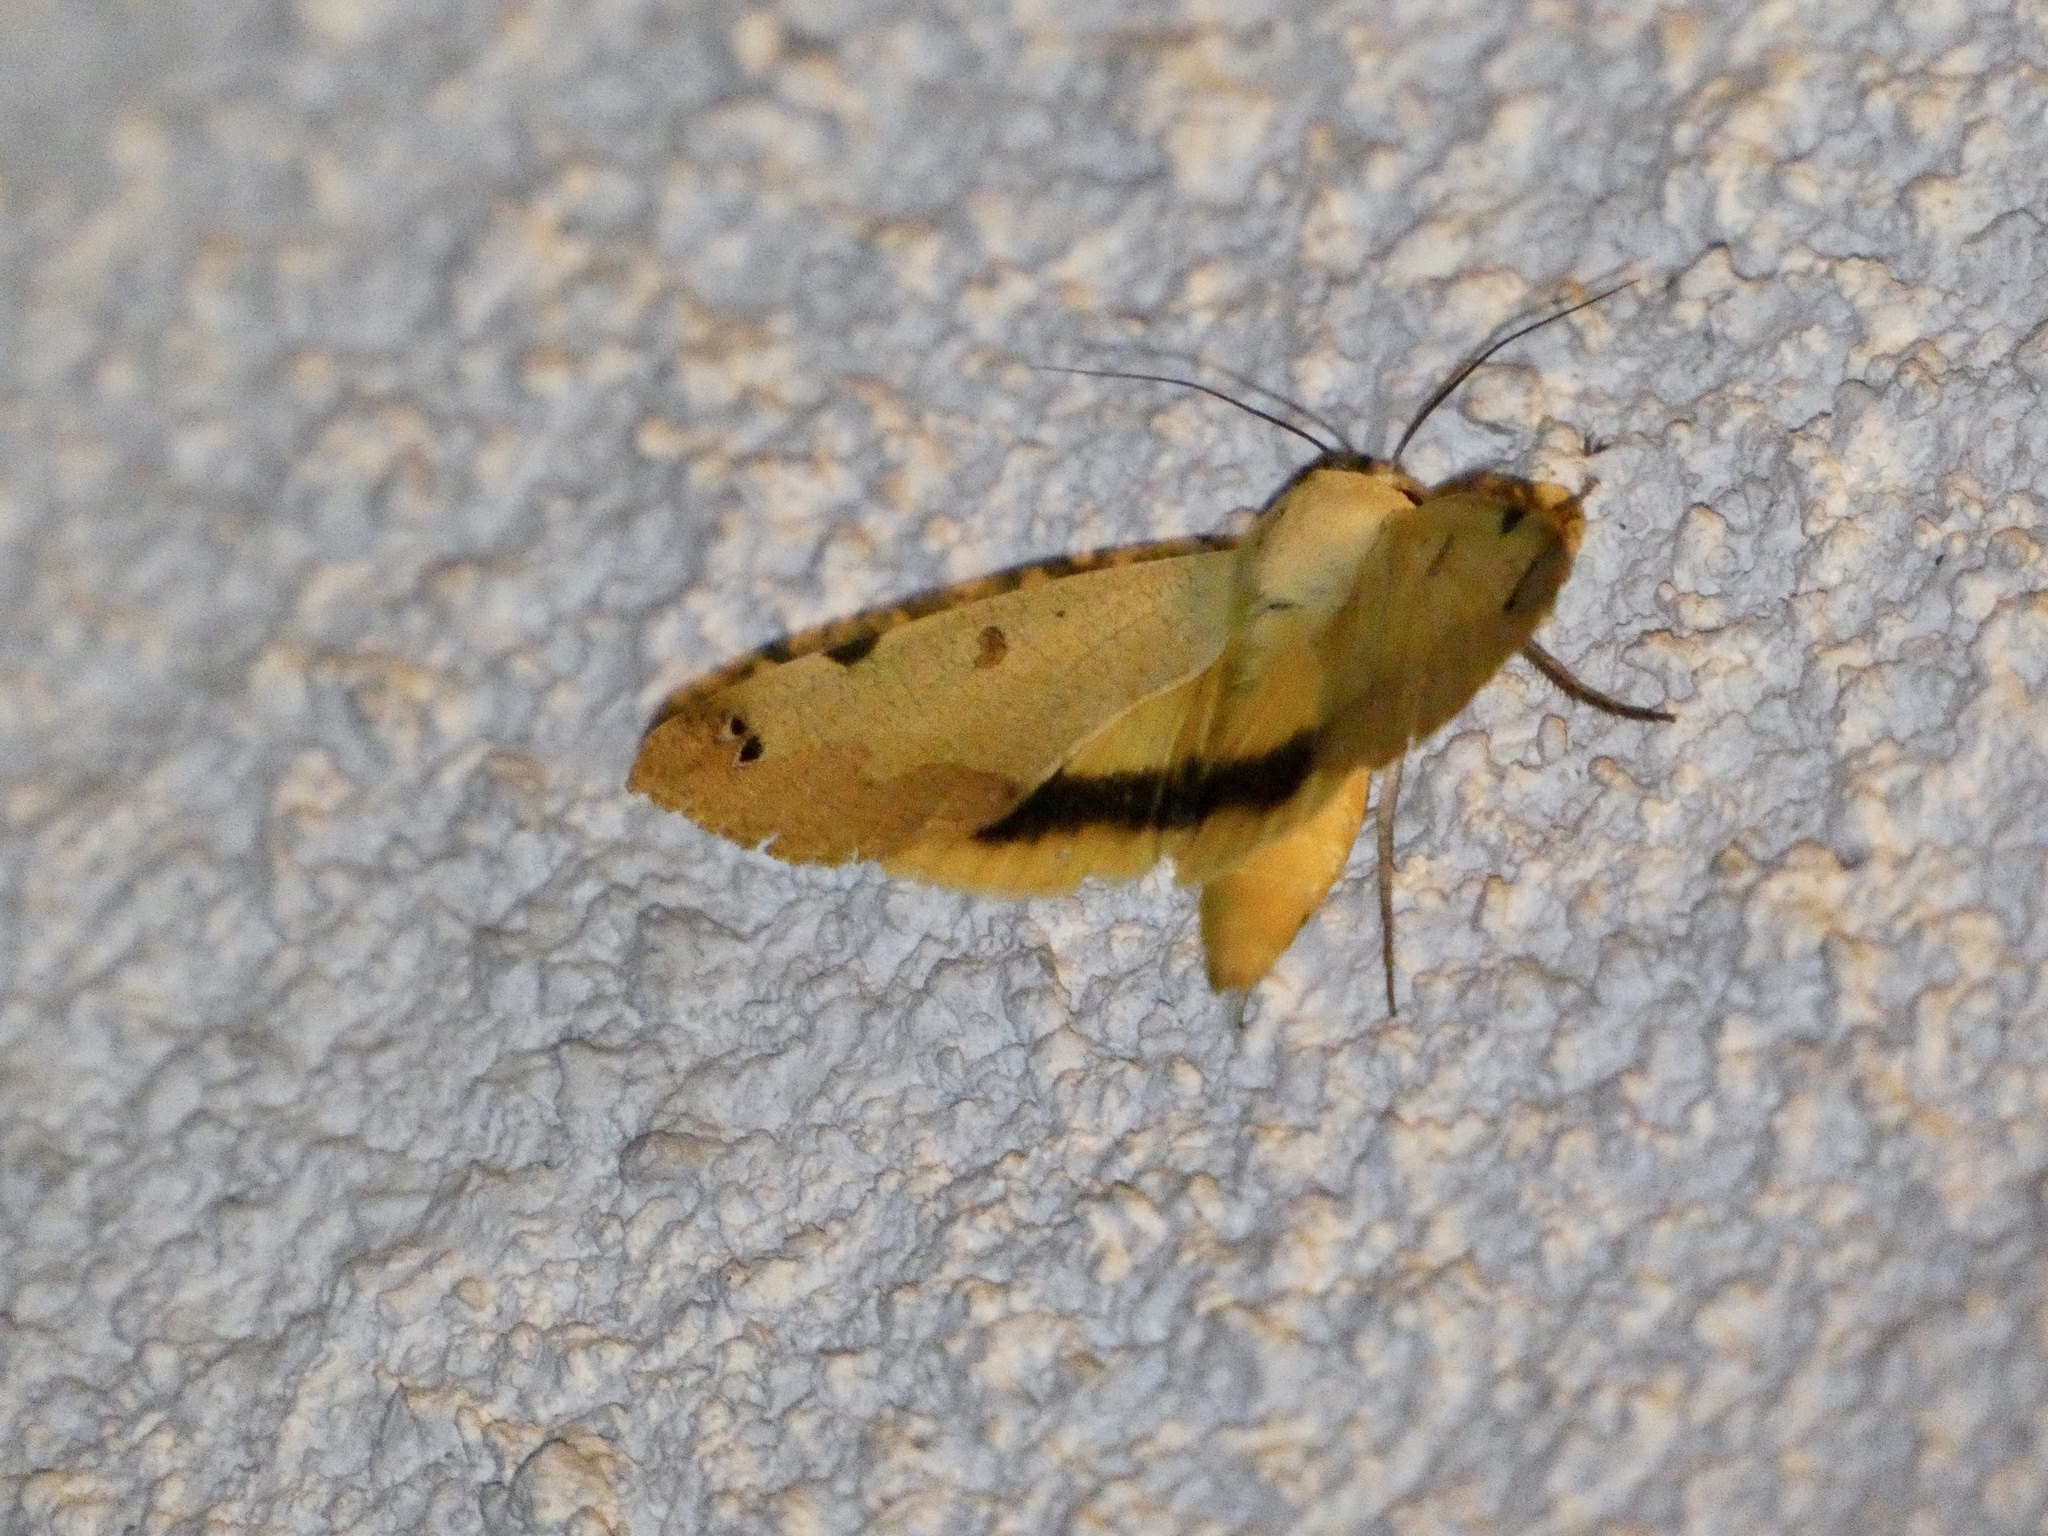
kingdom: Animalia
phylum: Arthropoda
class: Insecta
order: Lepidoptera
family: Erebidae
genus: Ophiusa
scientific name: Ophiusa tirhaca
